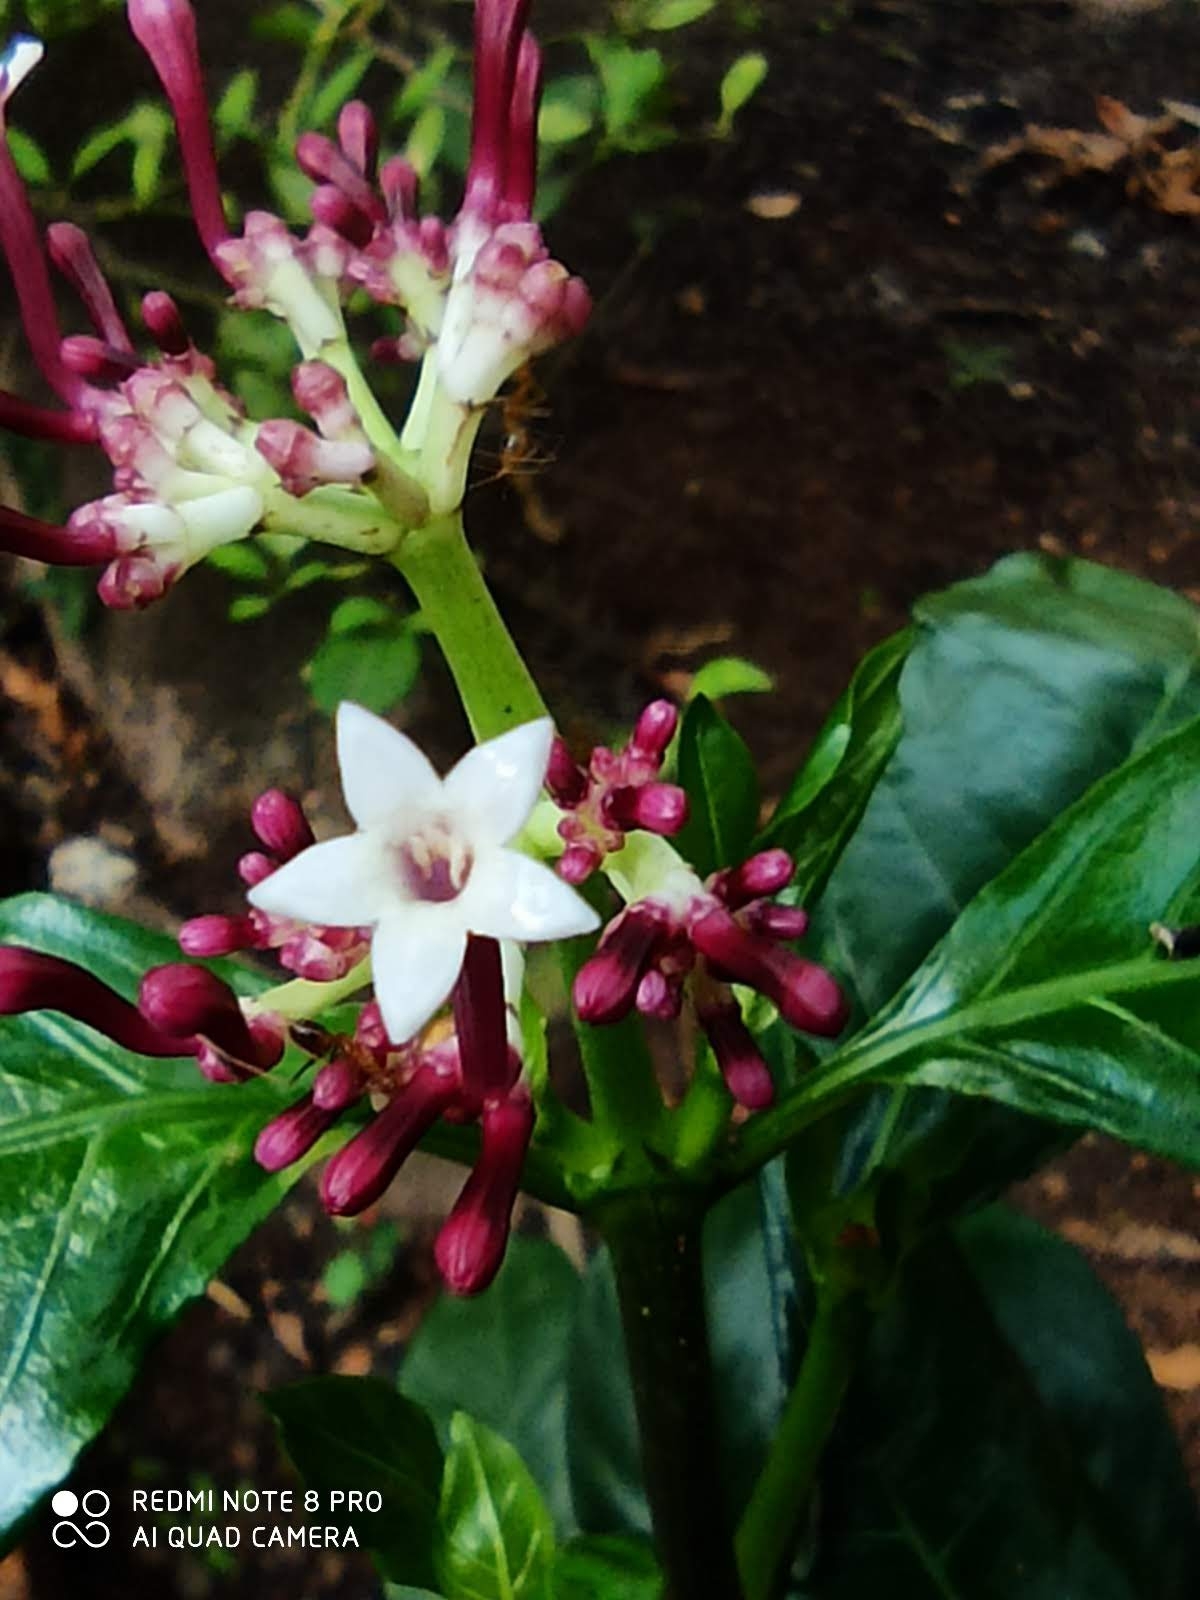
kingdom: Plantae
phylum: Tracheophyta
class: Magnoliopsida
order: Gentianales
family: Rubiaceae
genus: Chassalia
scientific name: Chassalia curviflora
